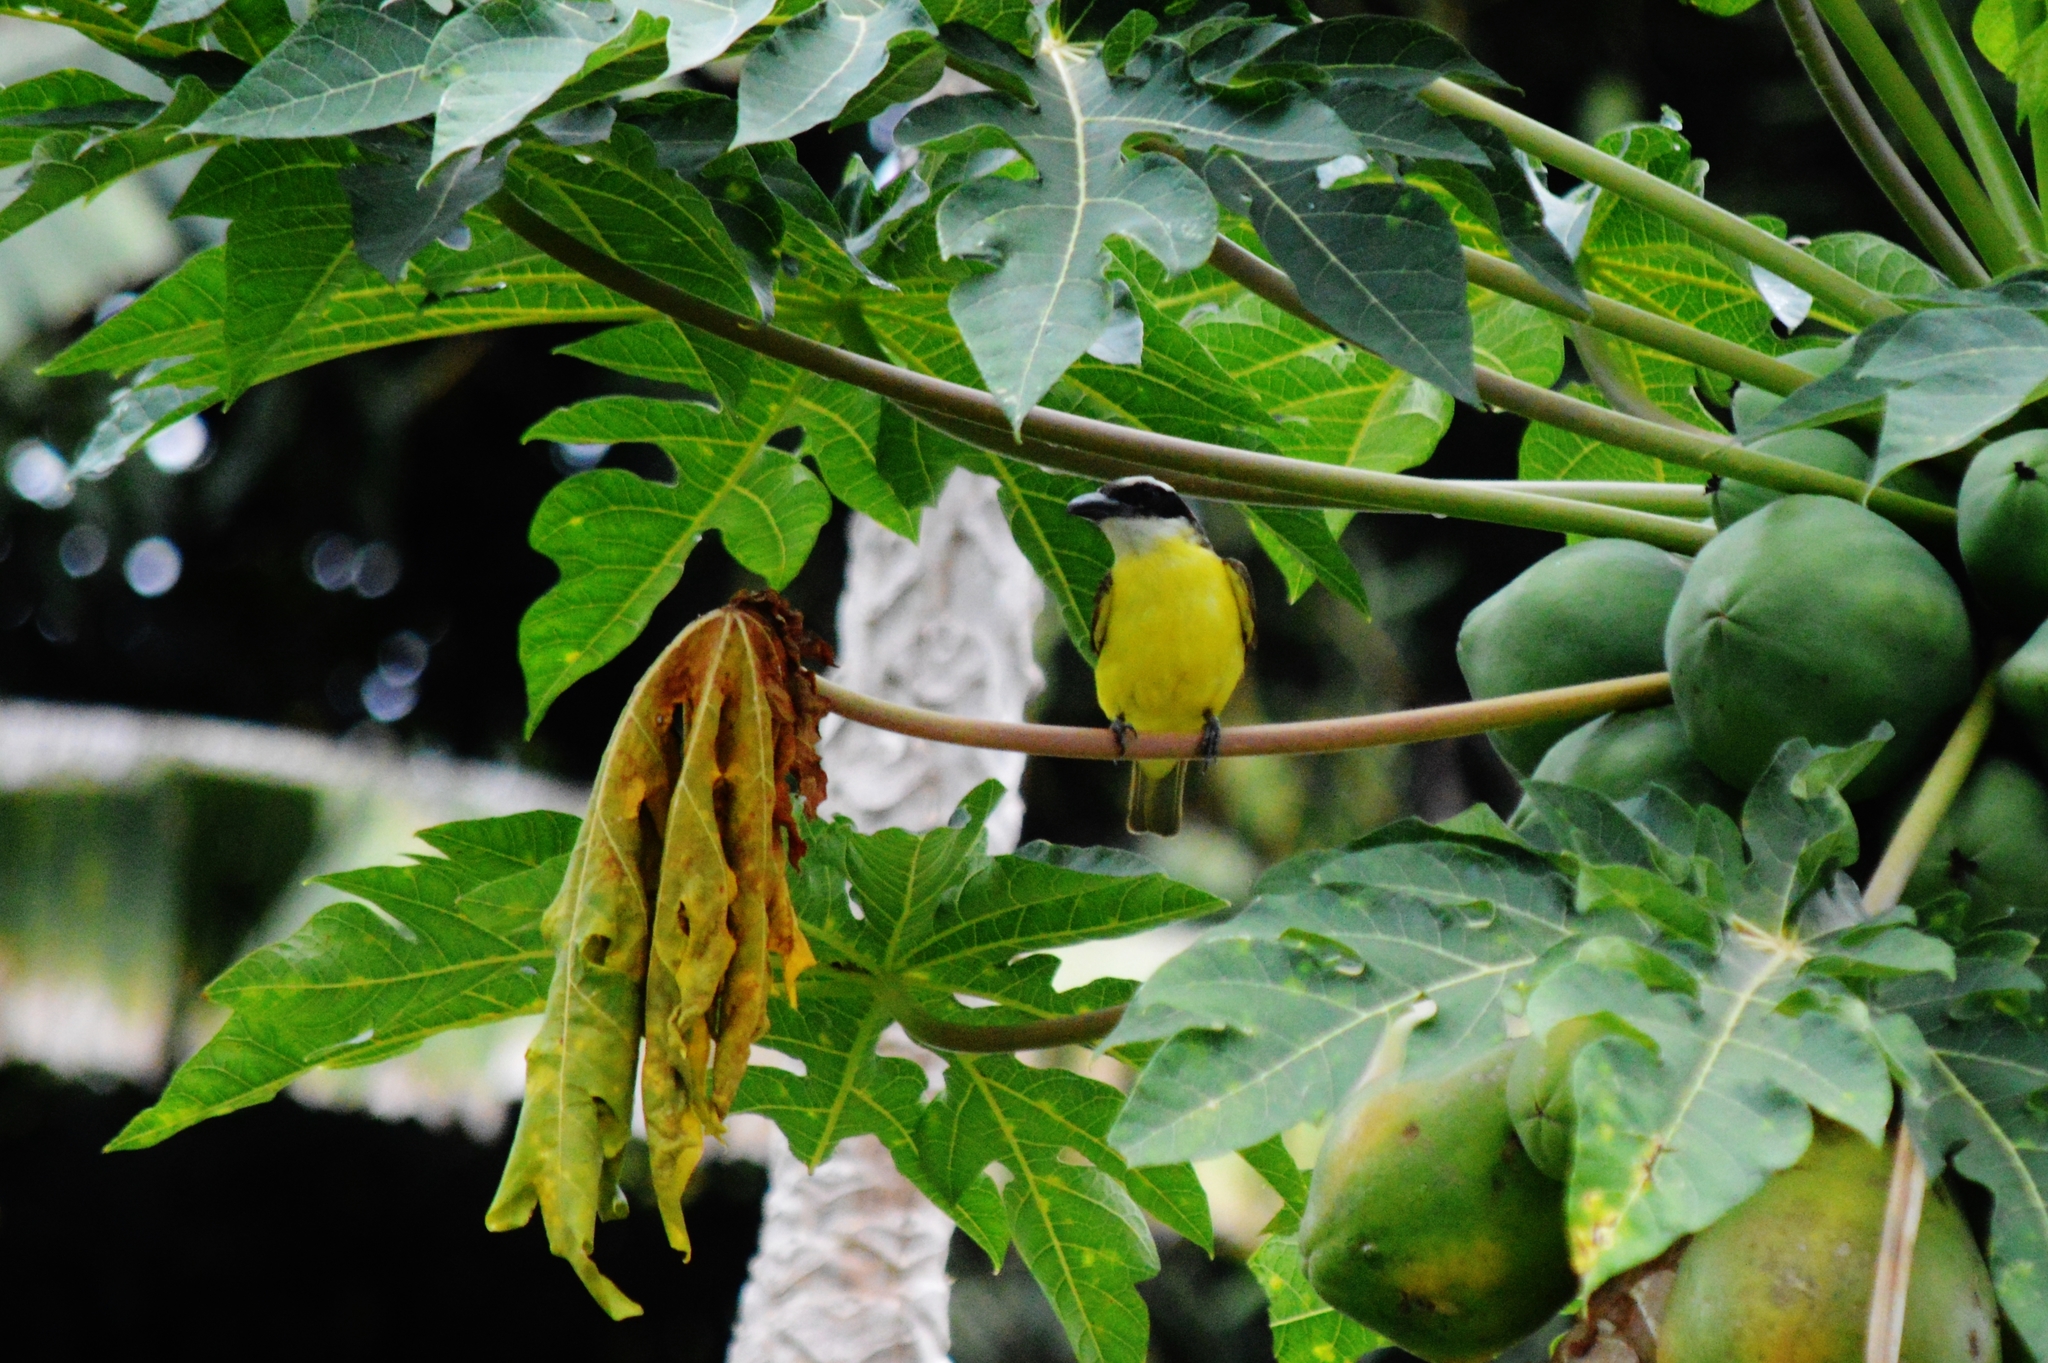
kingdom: Animalia
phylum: Chordata
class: Aves
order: Passeriformes
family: Tyrannidae
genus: Megarynchus
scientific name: Megarynchus pitangua
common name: Boat-billed flycatcher
